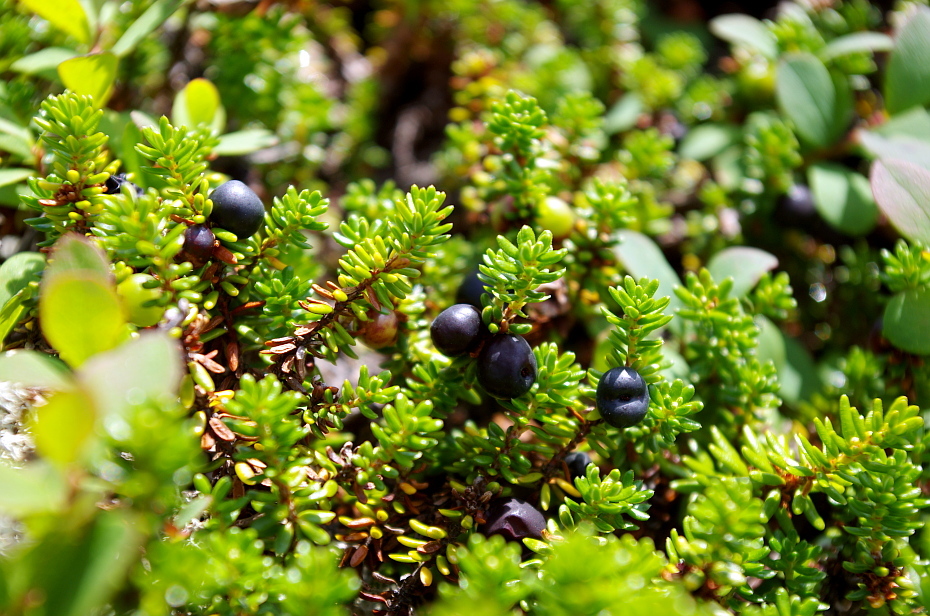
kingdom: Plantae
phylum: Tracheophyta
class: Magnoliopsida
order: Ericales
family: Ericaceae
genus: Empetrum
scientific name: Empetrum nigrum
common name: Black crowberry
